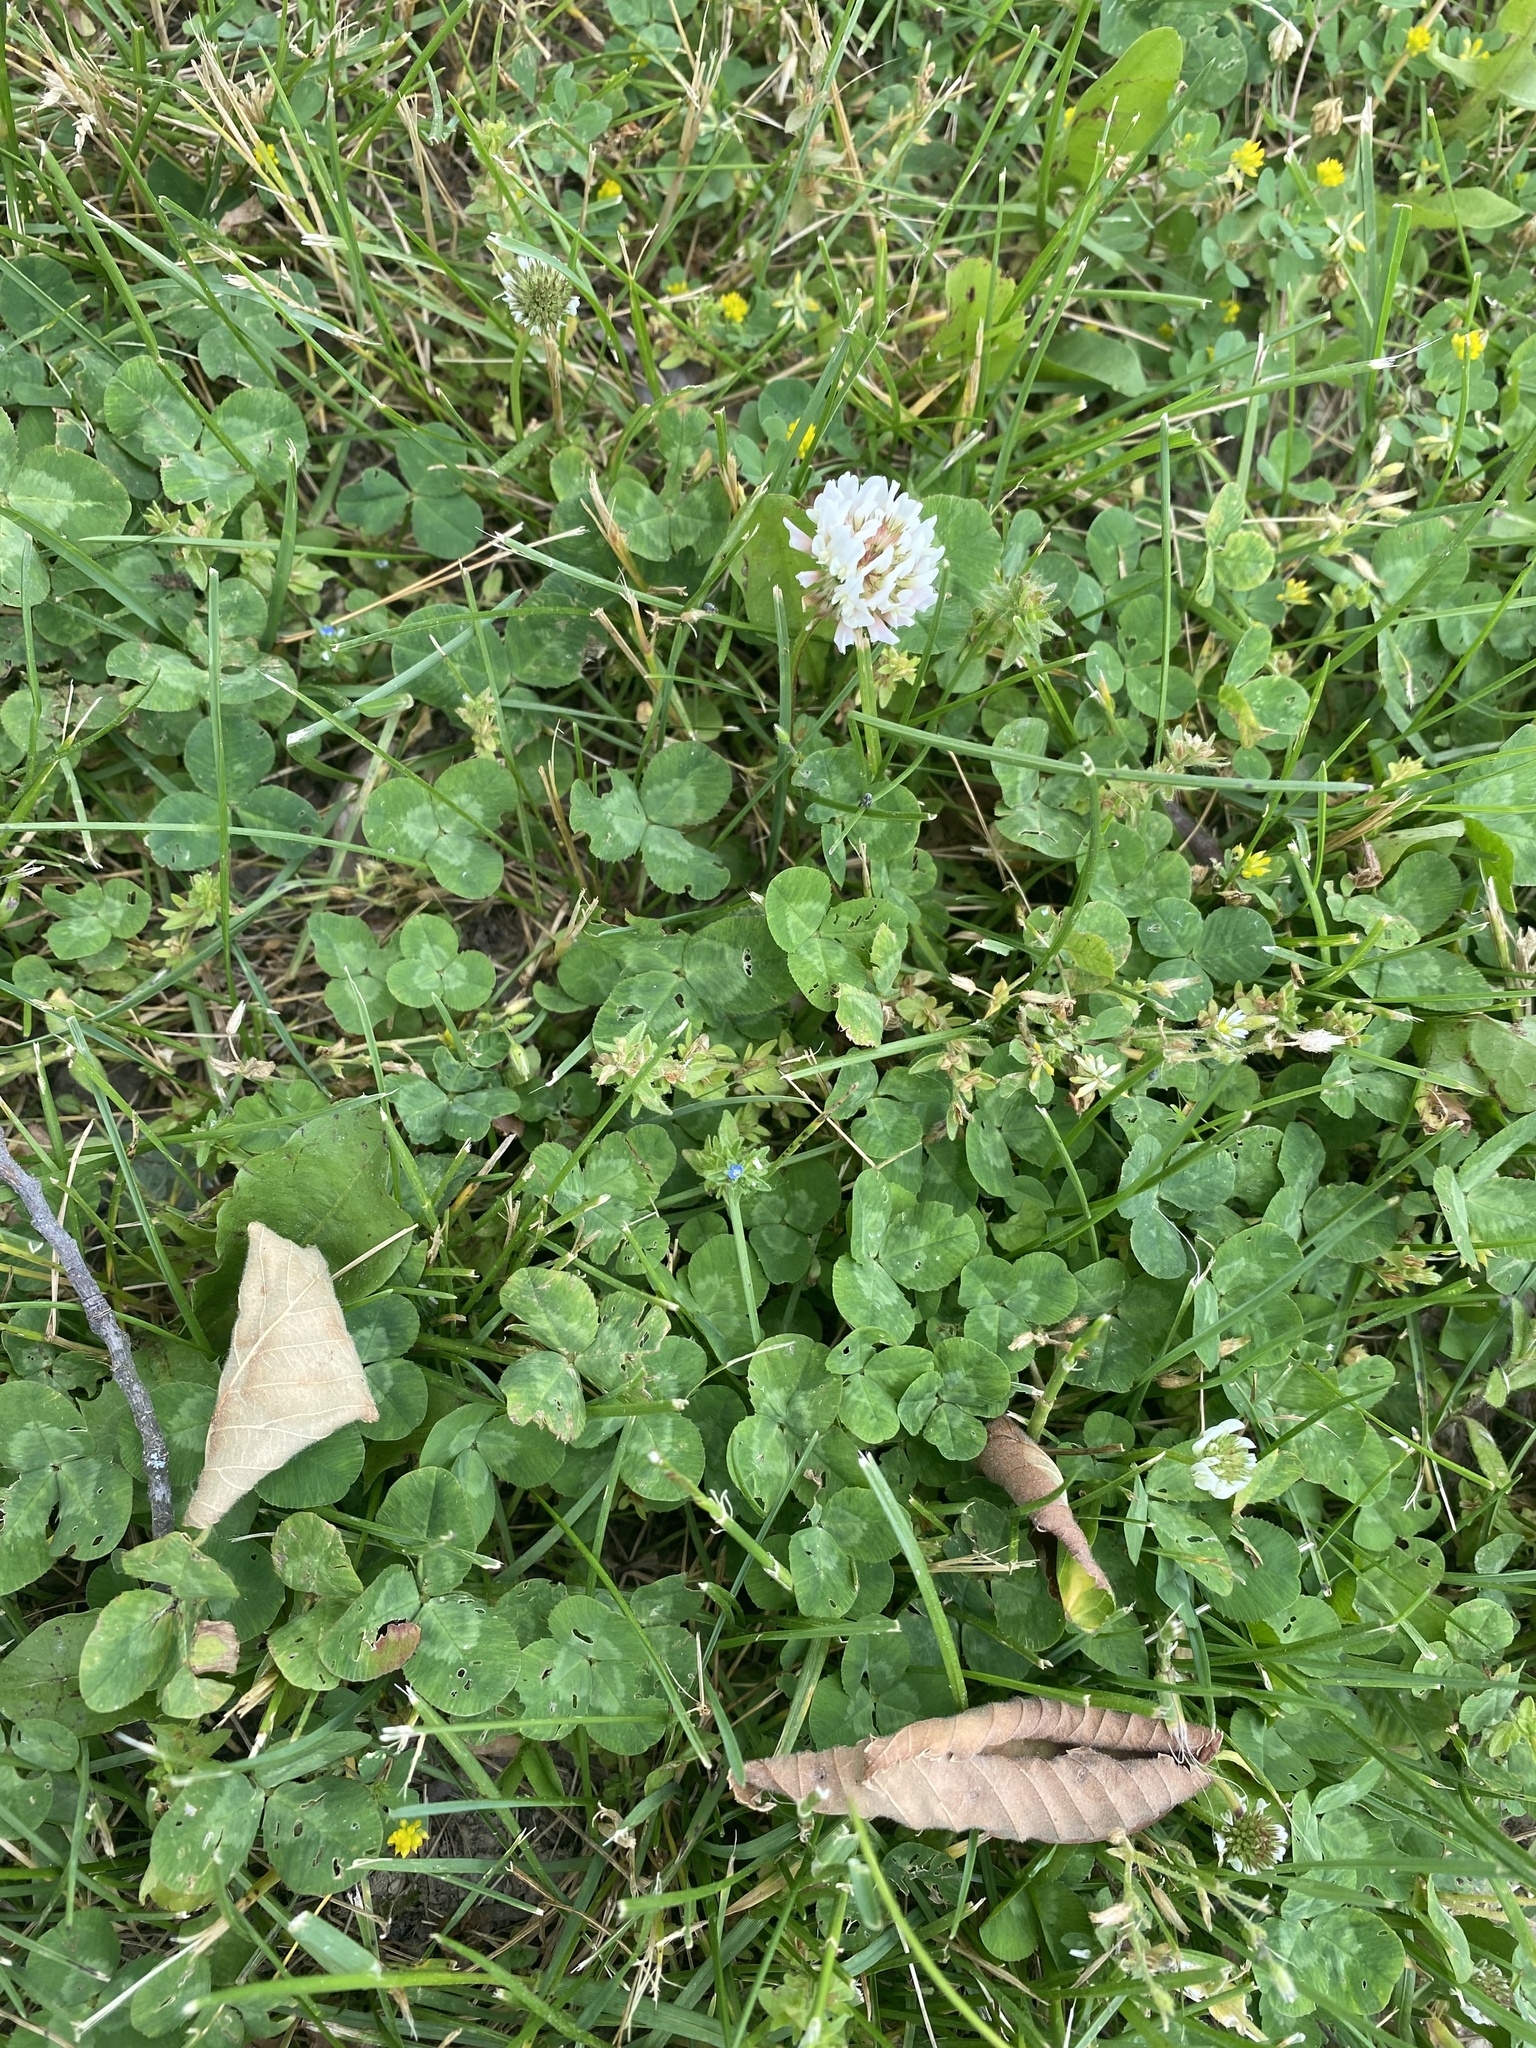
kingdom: Plantae
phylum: Tracheophyta
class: Magnoliopsida
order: Fabales
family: Fabaceae
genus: Trifolium
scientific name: Trifolium repens
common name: White clover
